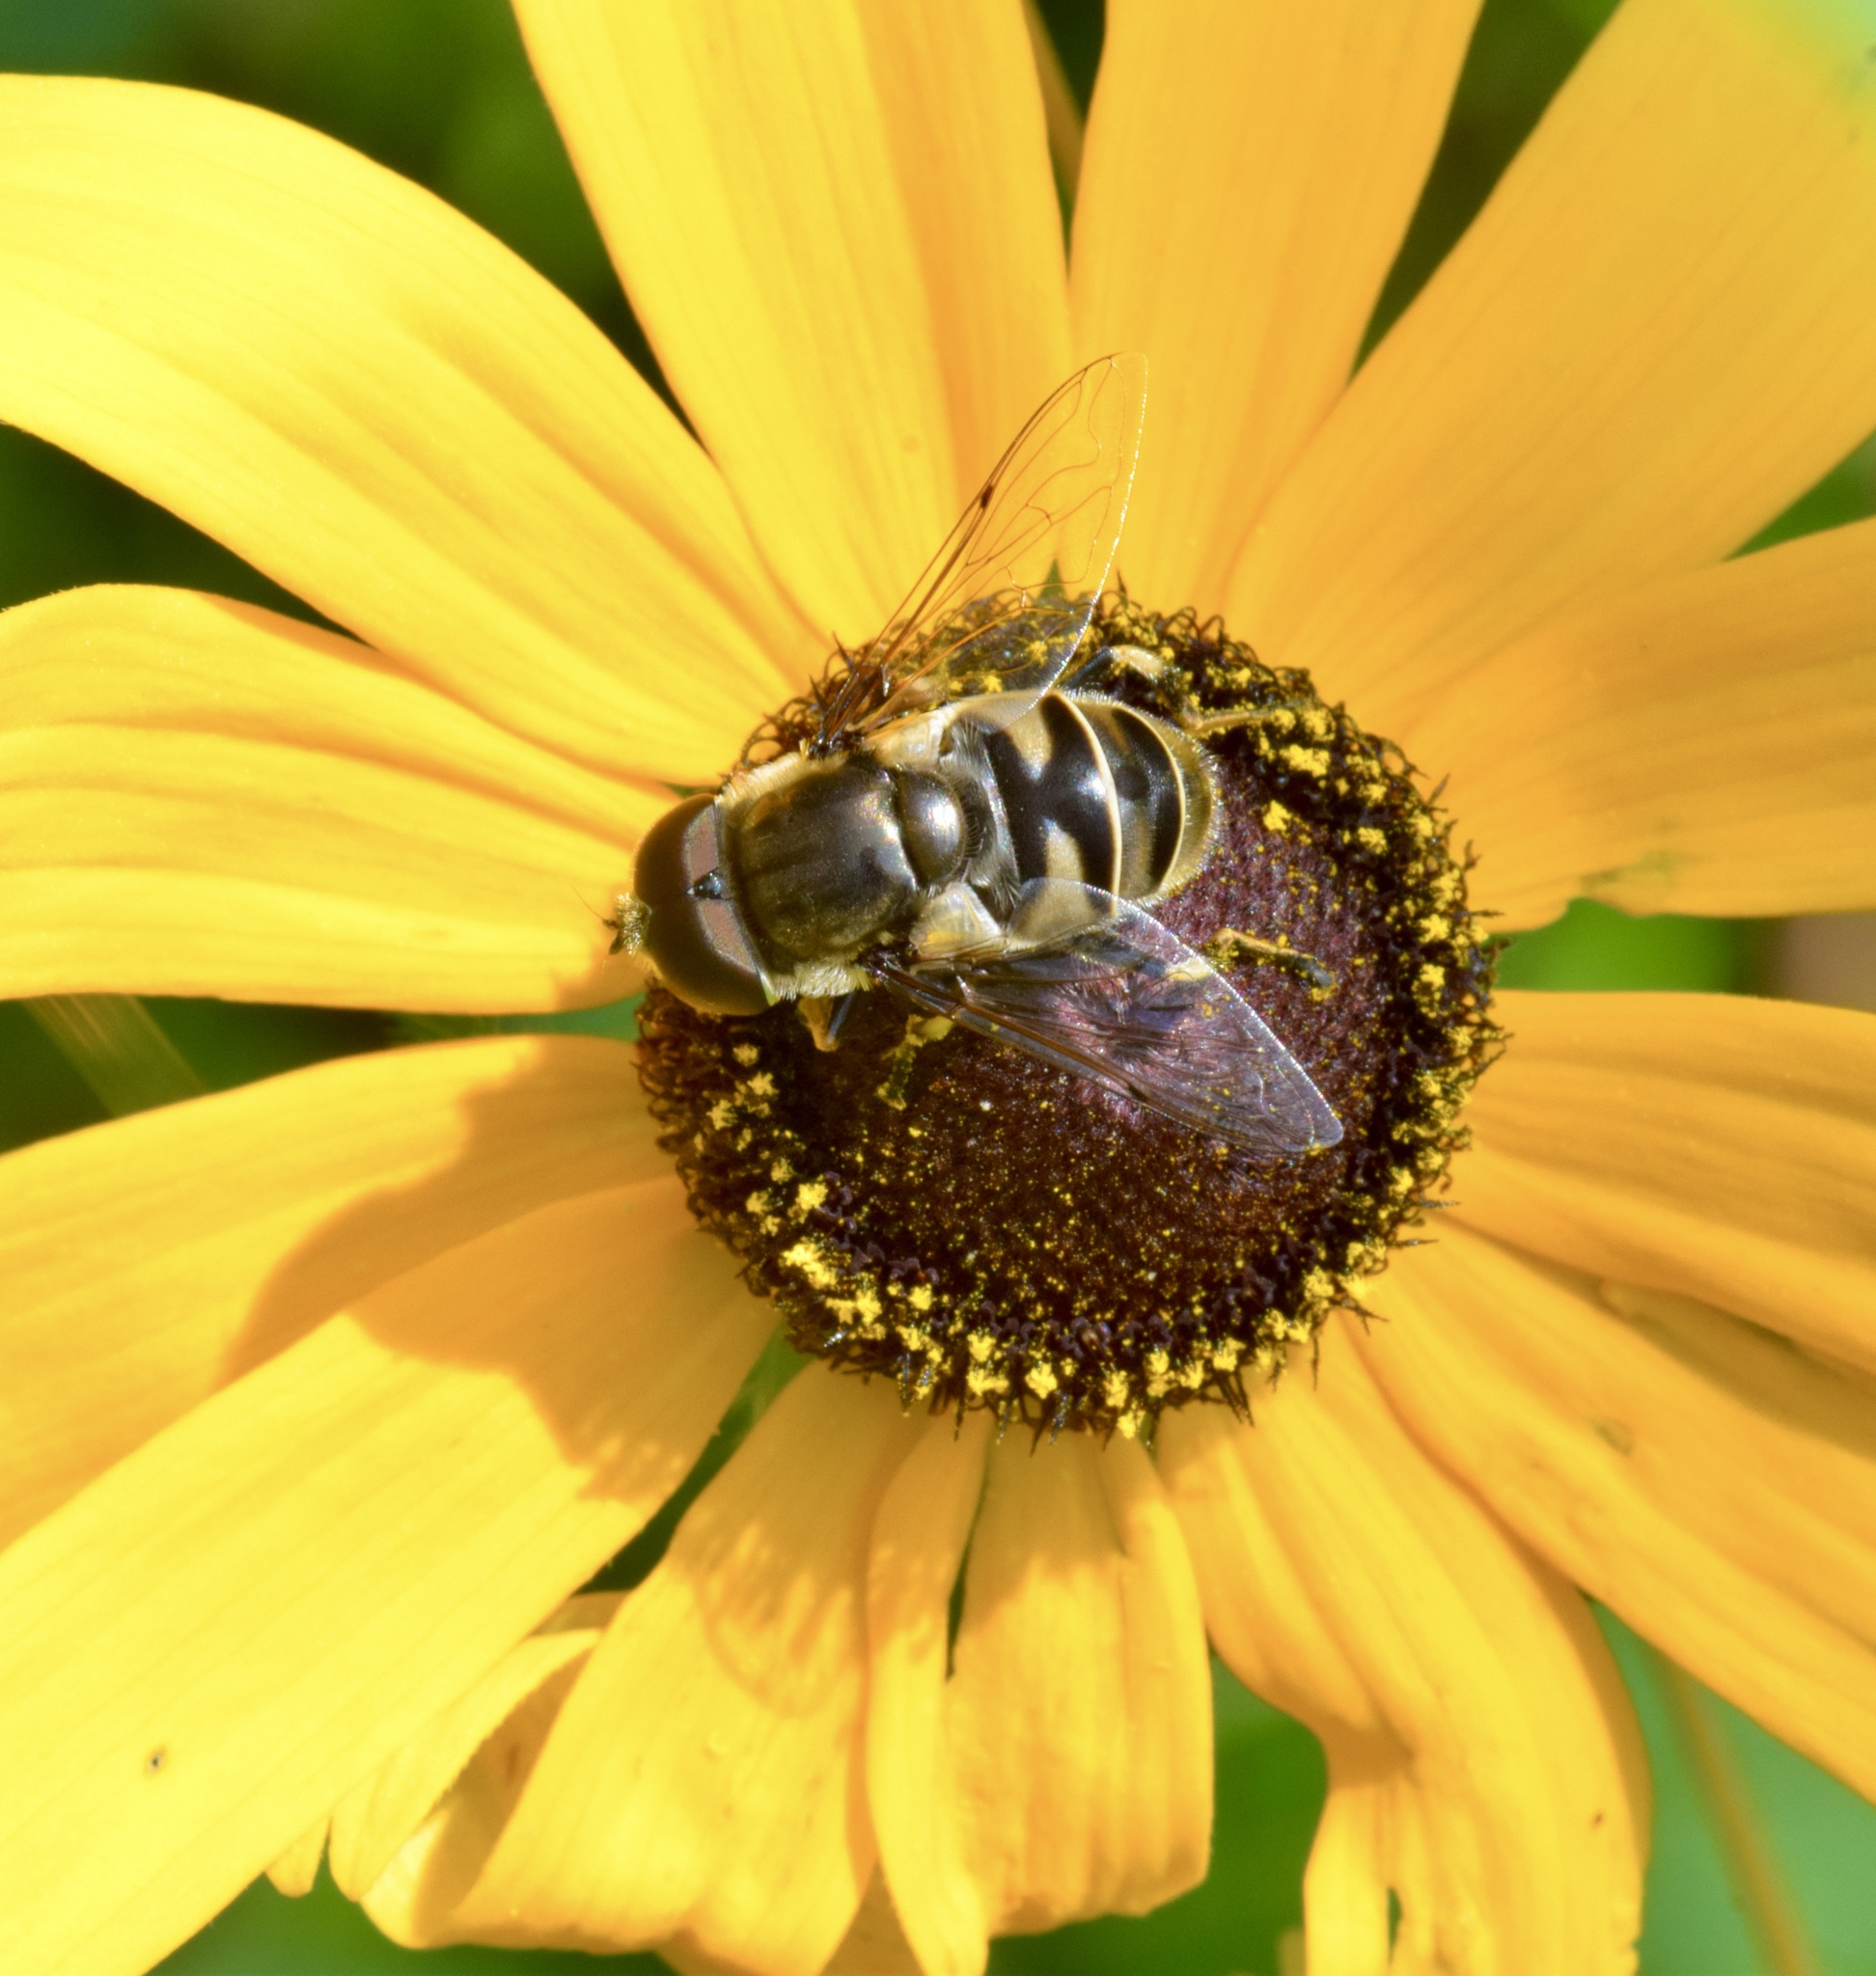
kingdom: Animalia
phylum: Arthropoda
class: Insecta
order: Diptera
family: Syrphidae
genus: Eristalis
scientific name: Eristalis dimidiata
